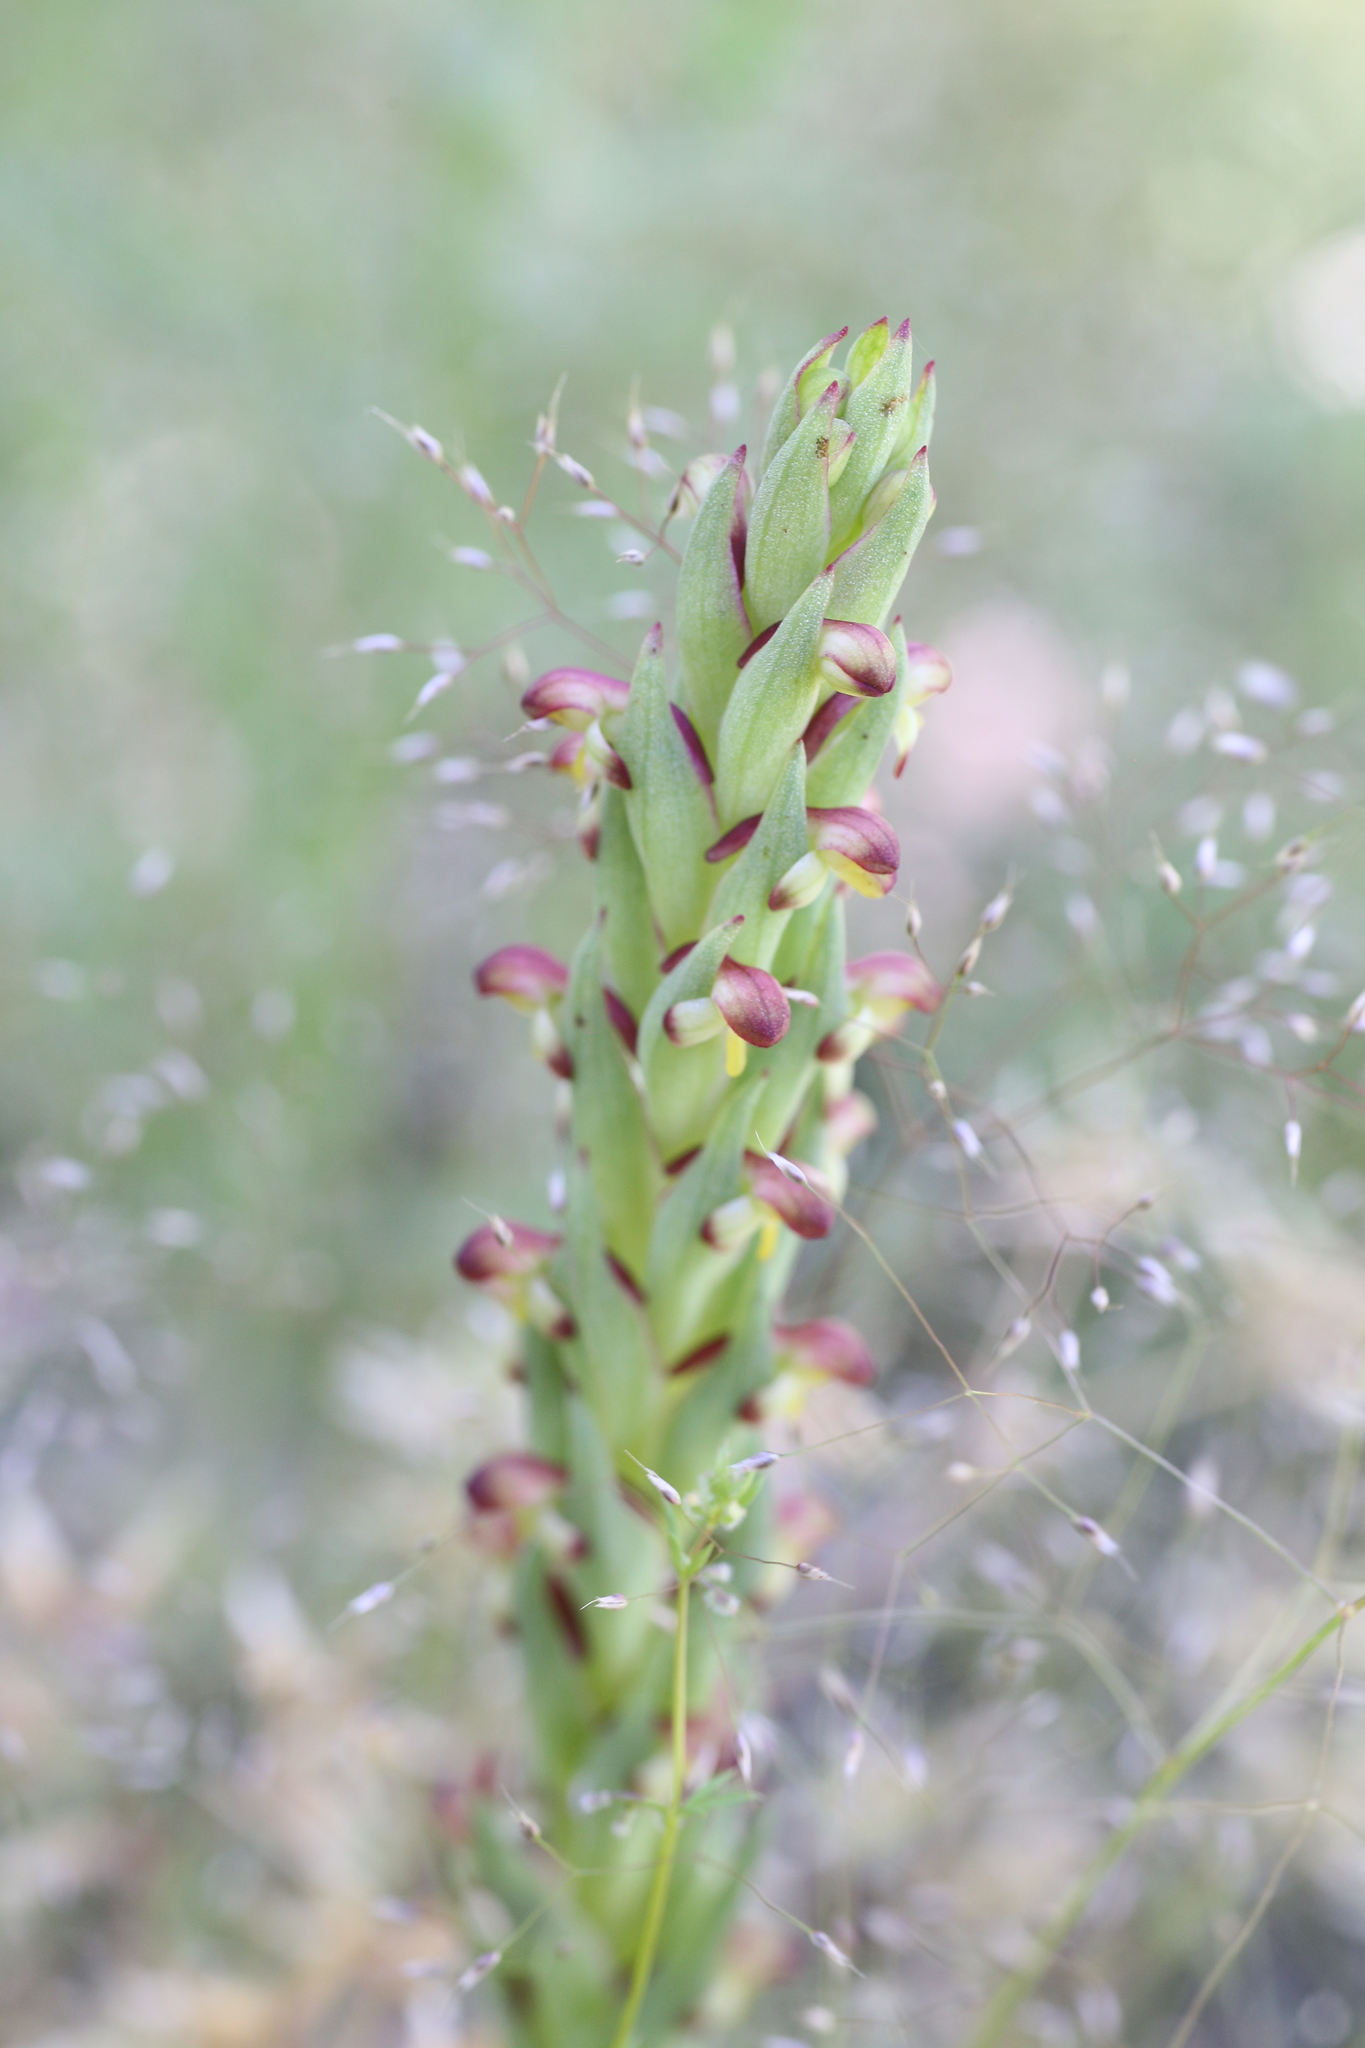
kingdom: Plantae
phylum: Tracheophyta
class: Liliopsida
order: Asparagales
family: Orchidaceae
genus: Disa
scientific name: Disa bracteata
